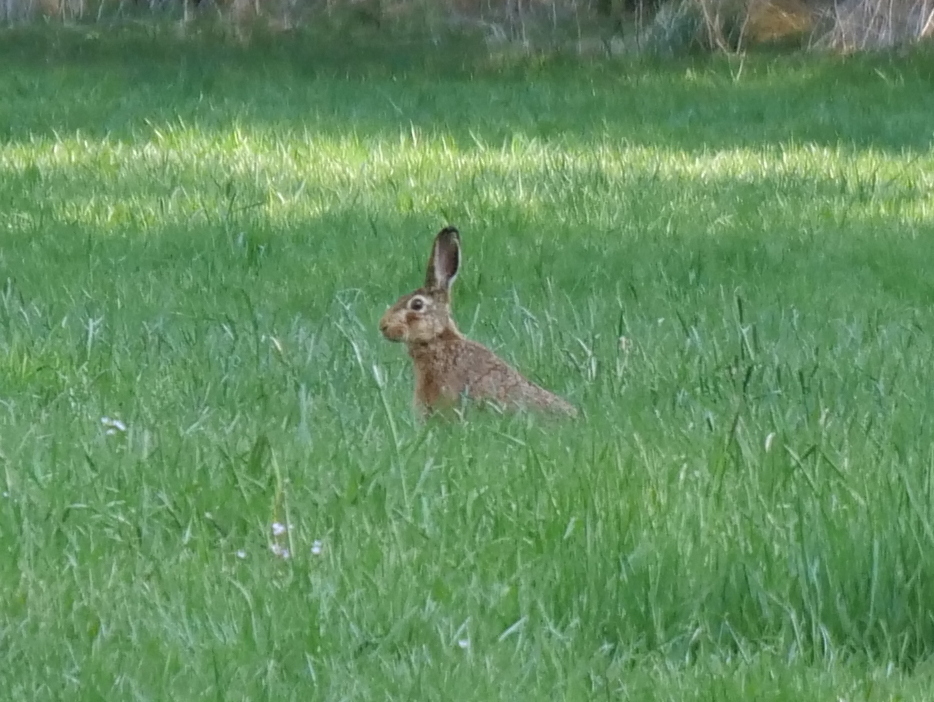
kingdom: Animalia
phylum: Chordata
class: Mammalia
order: Lagomorpha
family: Leporidae
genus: Lepus
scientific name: Lepus europaeus
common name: European hare
